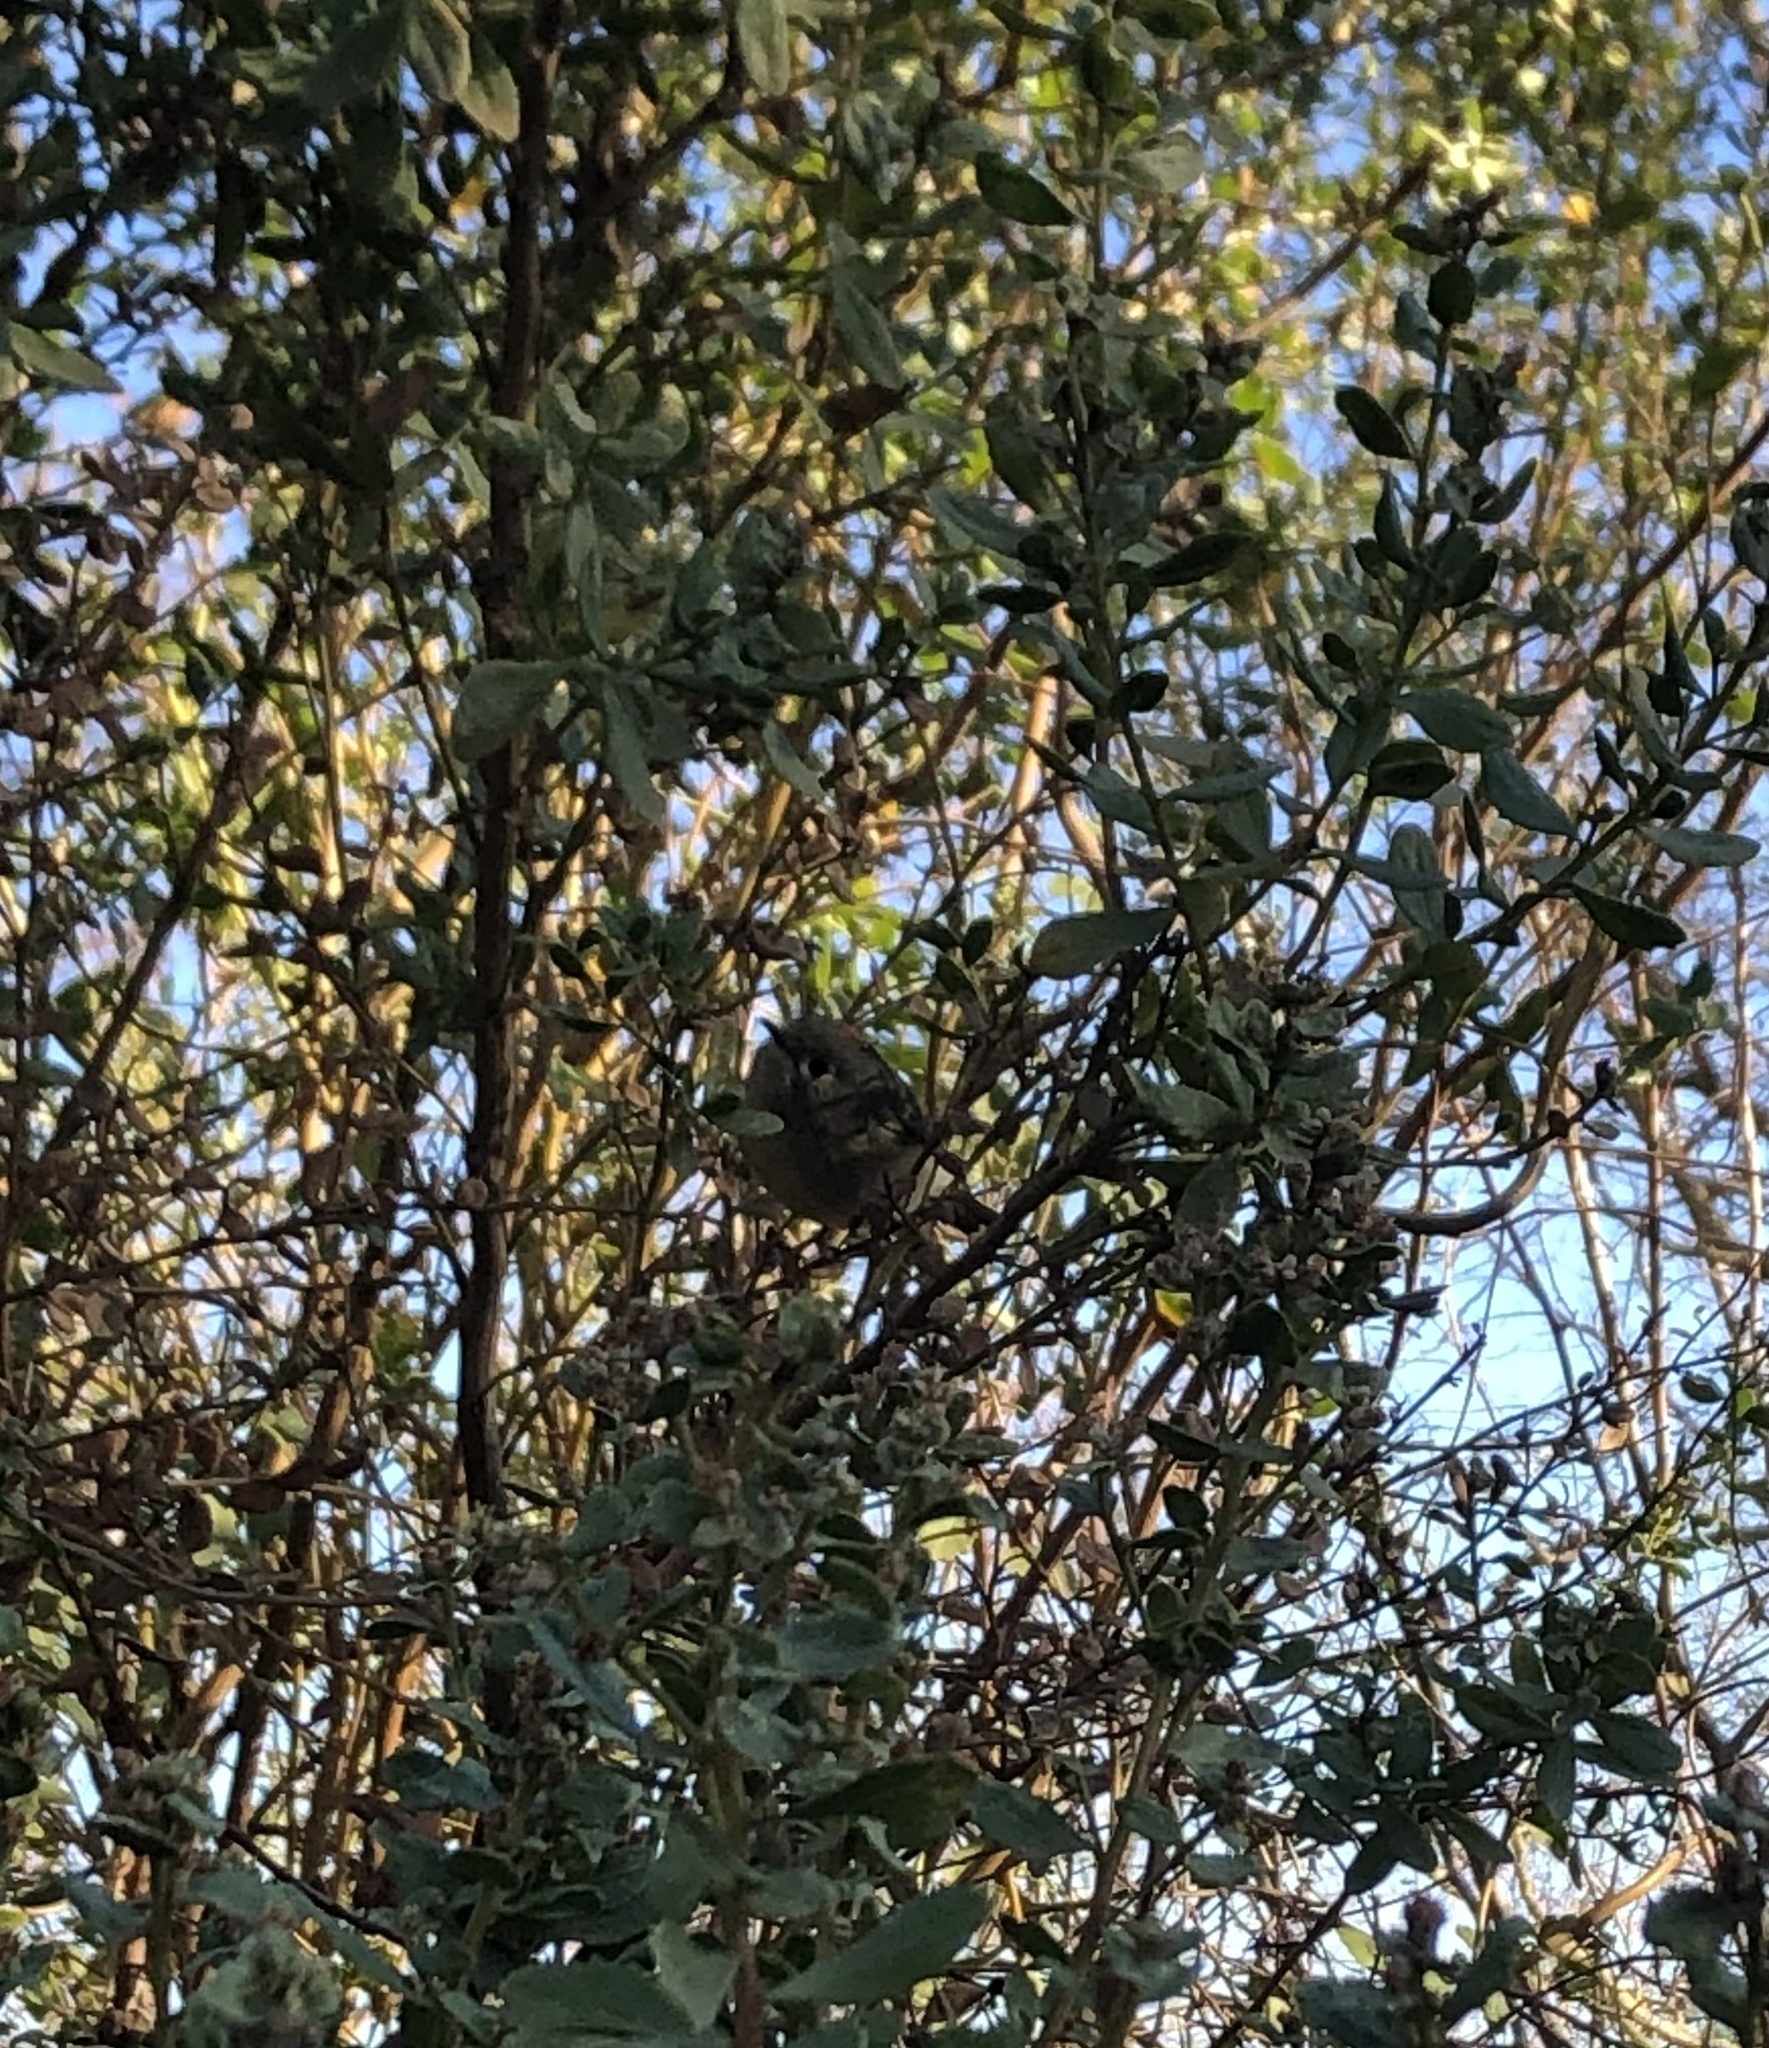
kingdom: Animalia
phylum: Chordata
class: Aves
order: Passeriformes
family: Regulidae
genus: Regulus
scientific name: Regulus calendula
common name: Ruby-crowned kinglet
